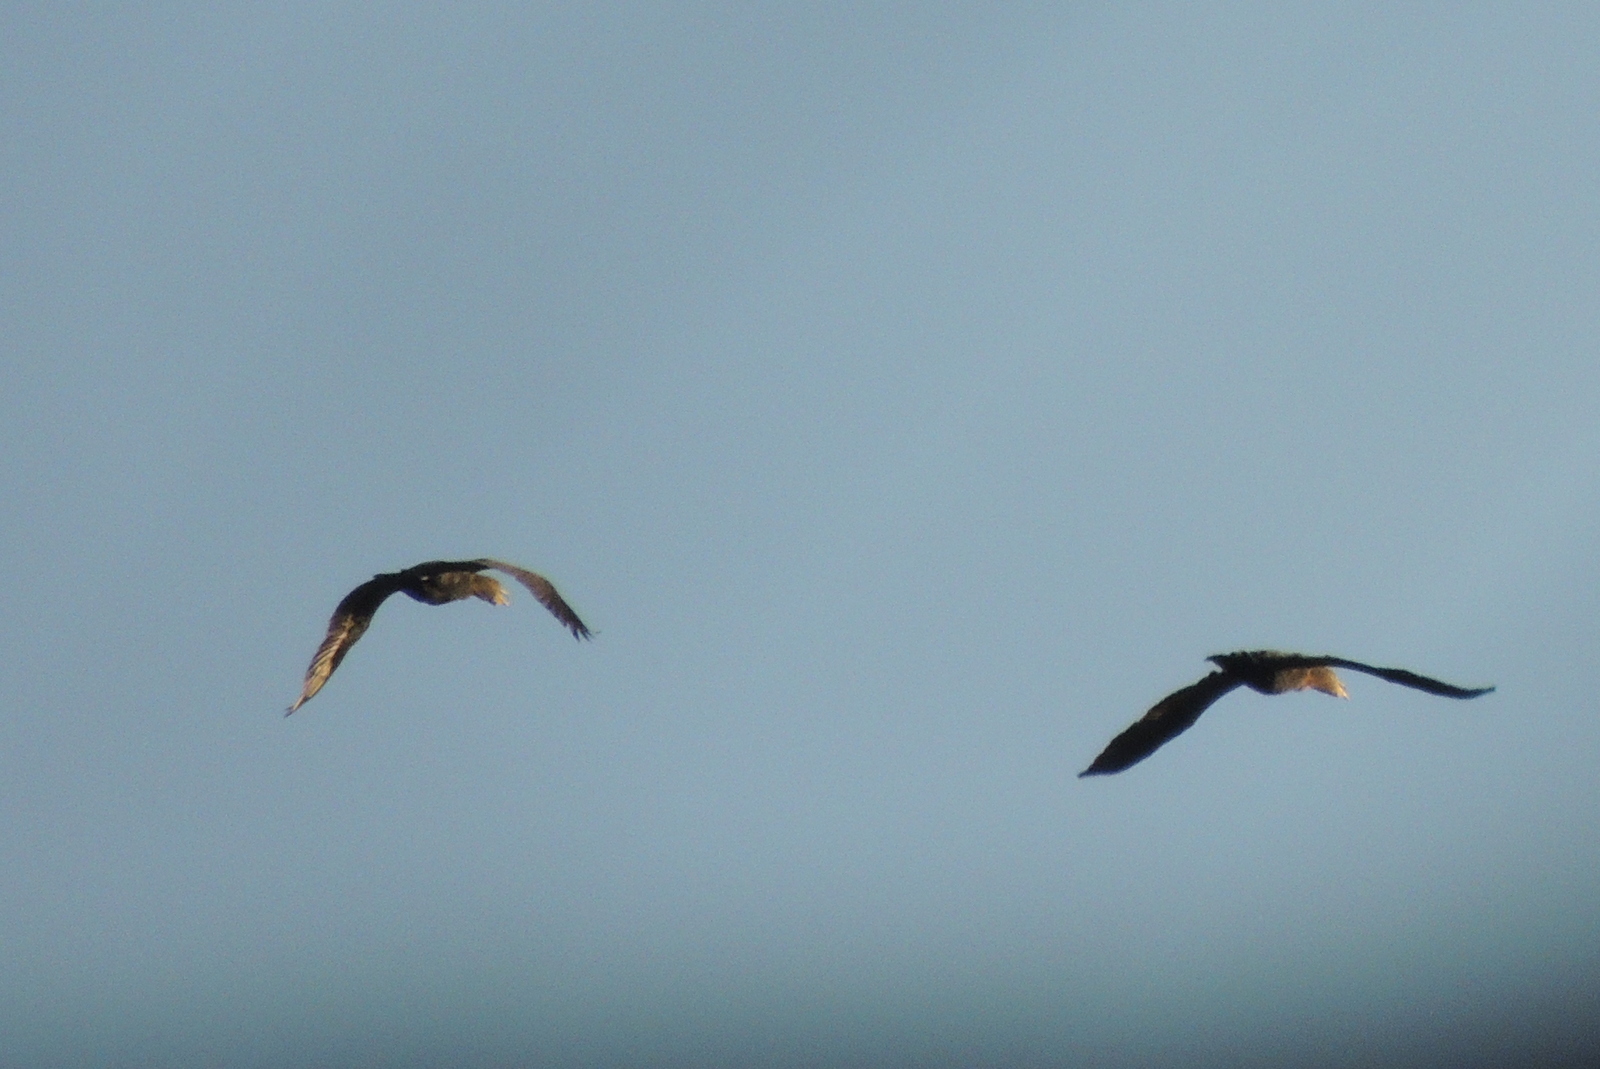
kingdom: Animalia
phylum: Chordata
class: Aves
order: Suliformes
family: Phalacrocoracidae
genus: Phalacrocorax
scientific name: Phalacrocorax auritus
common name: Double-crested cormorant
